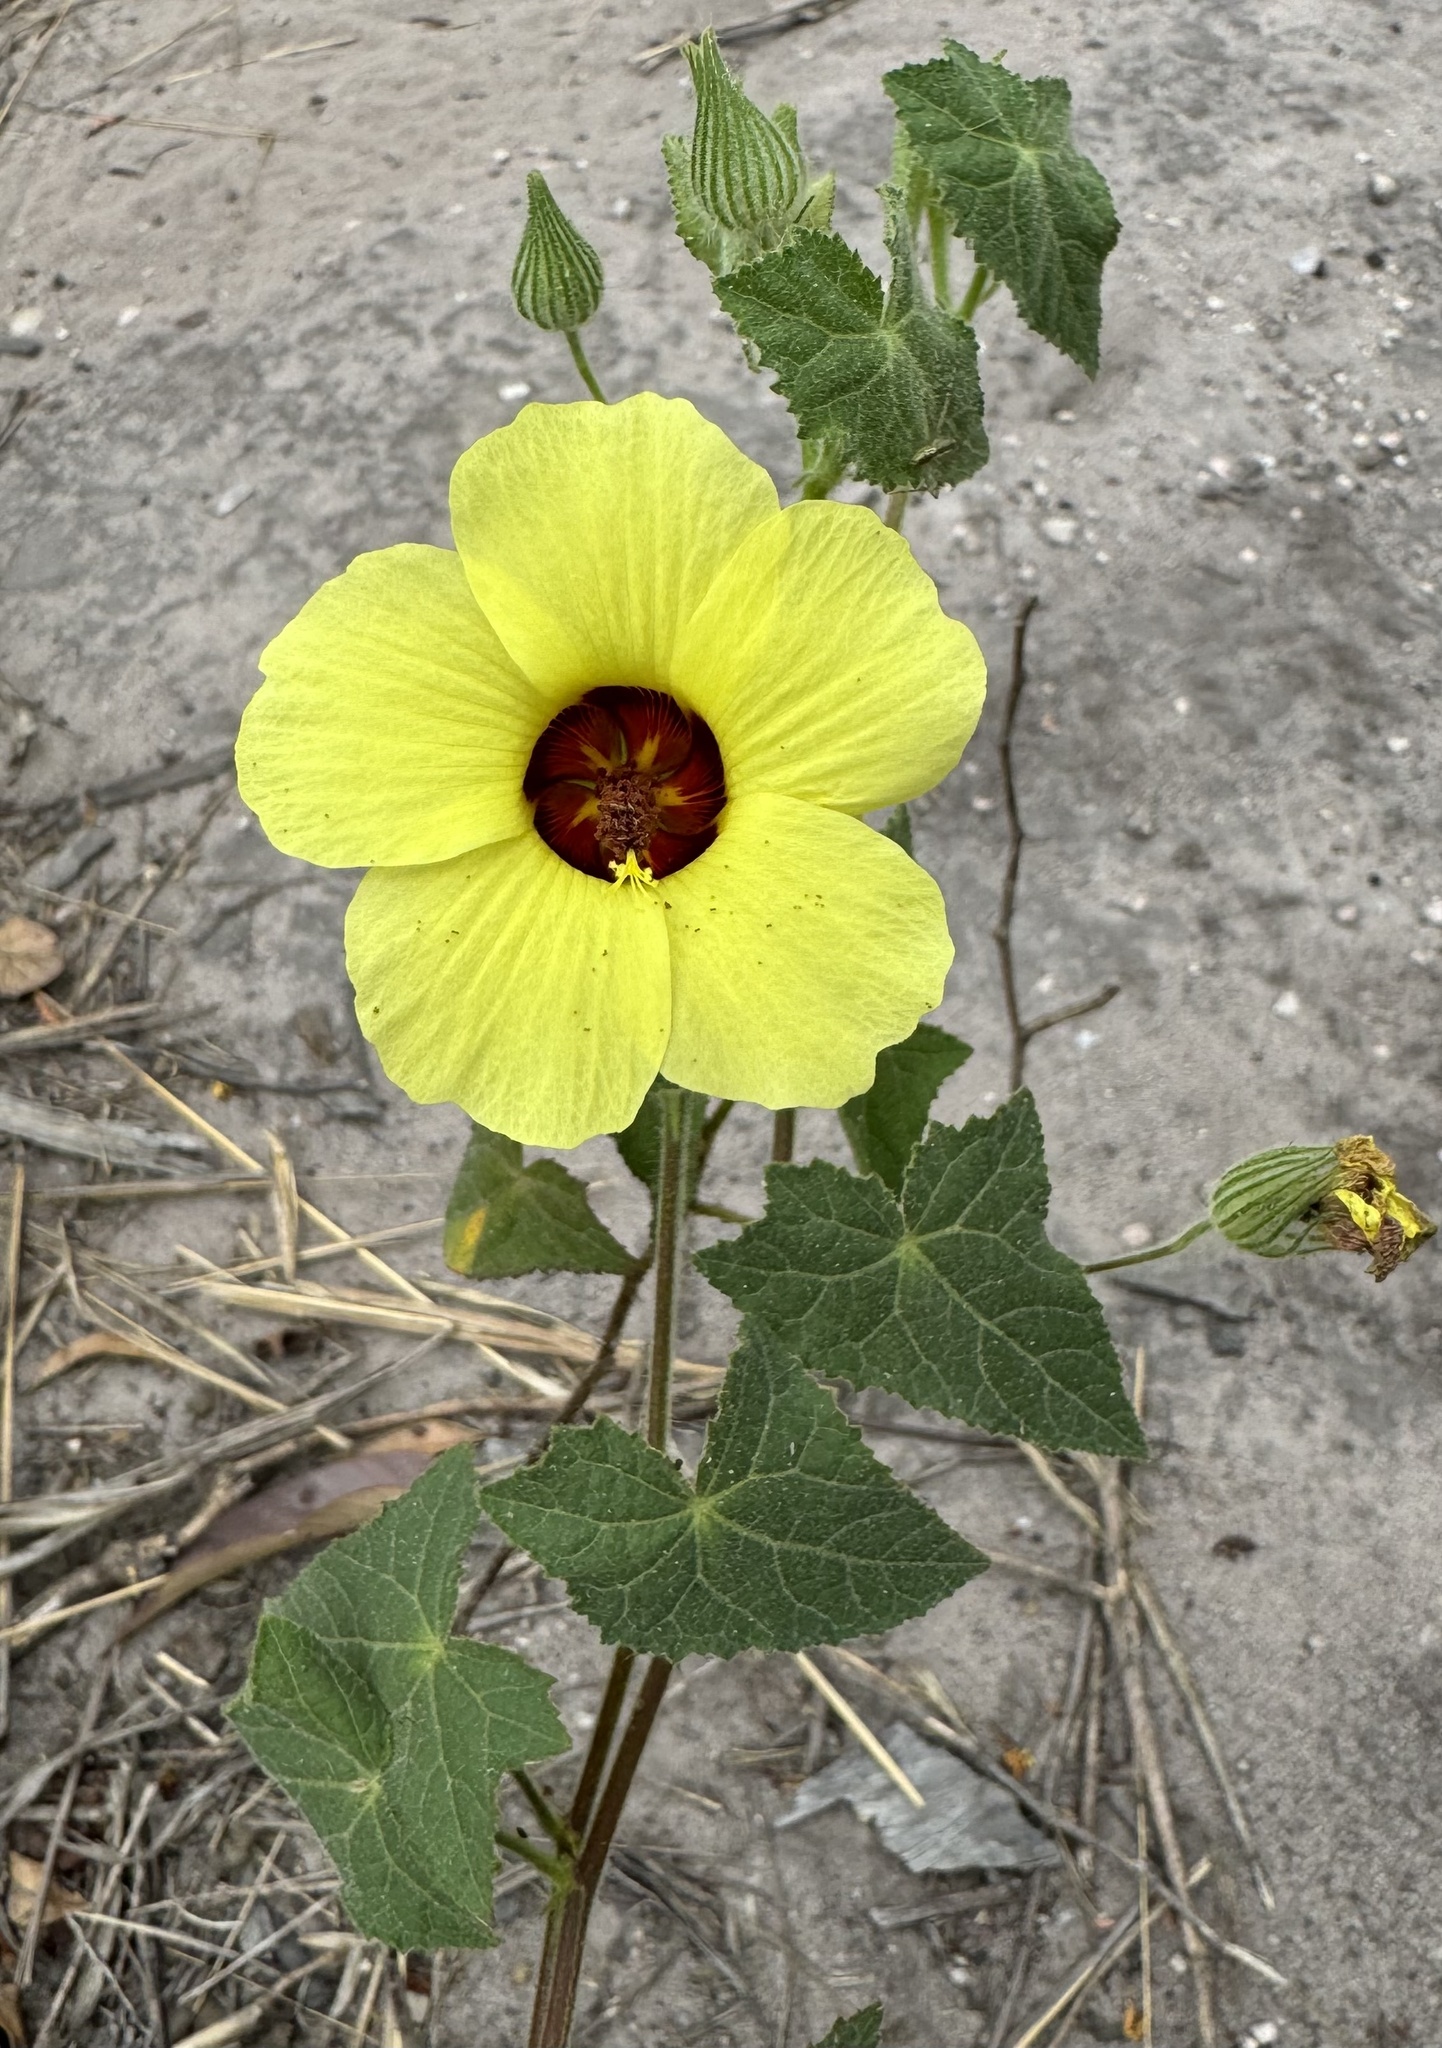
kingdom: Plantae
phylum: Tracheophyta
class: Magnoliopsida
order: Malvales
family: Malvaceae
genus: Pavonia
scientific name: Pavonia cancellata
